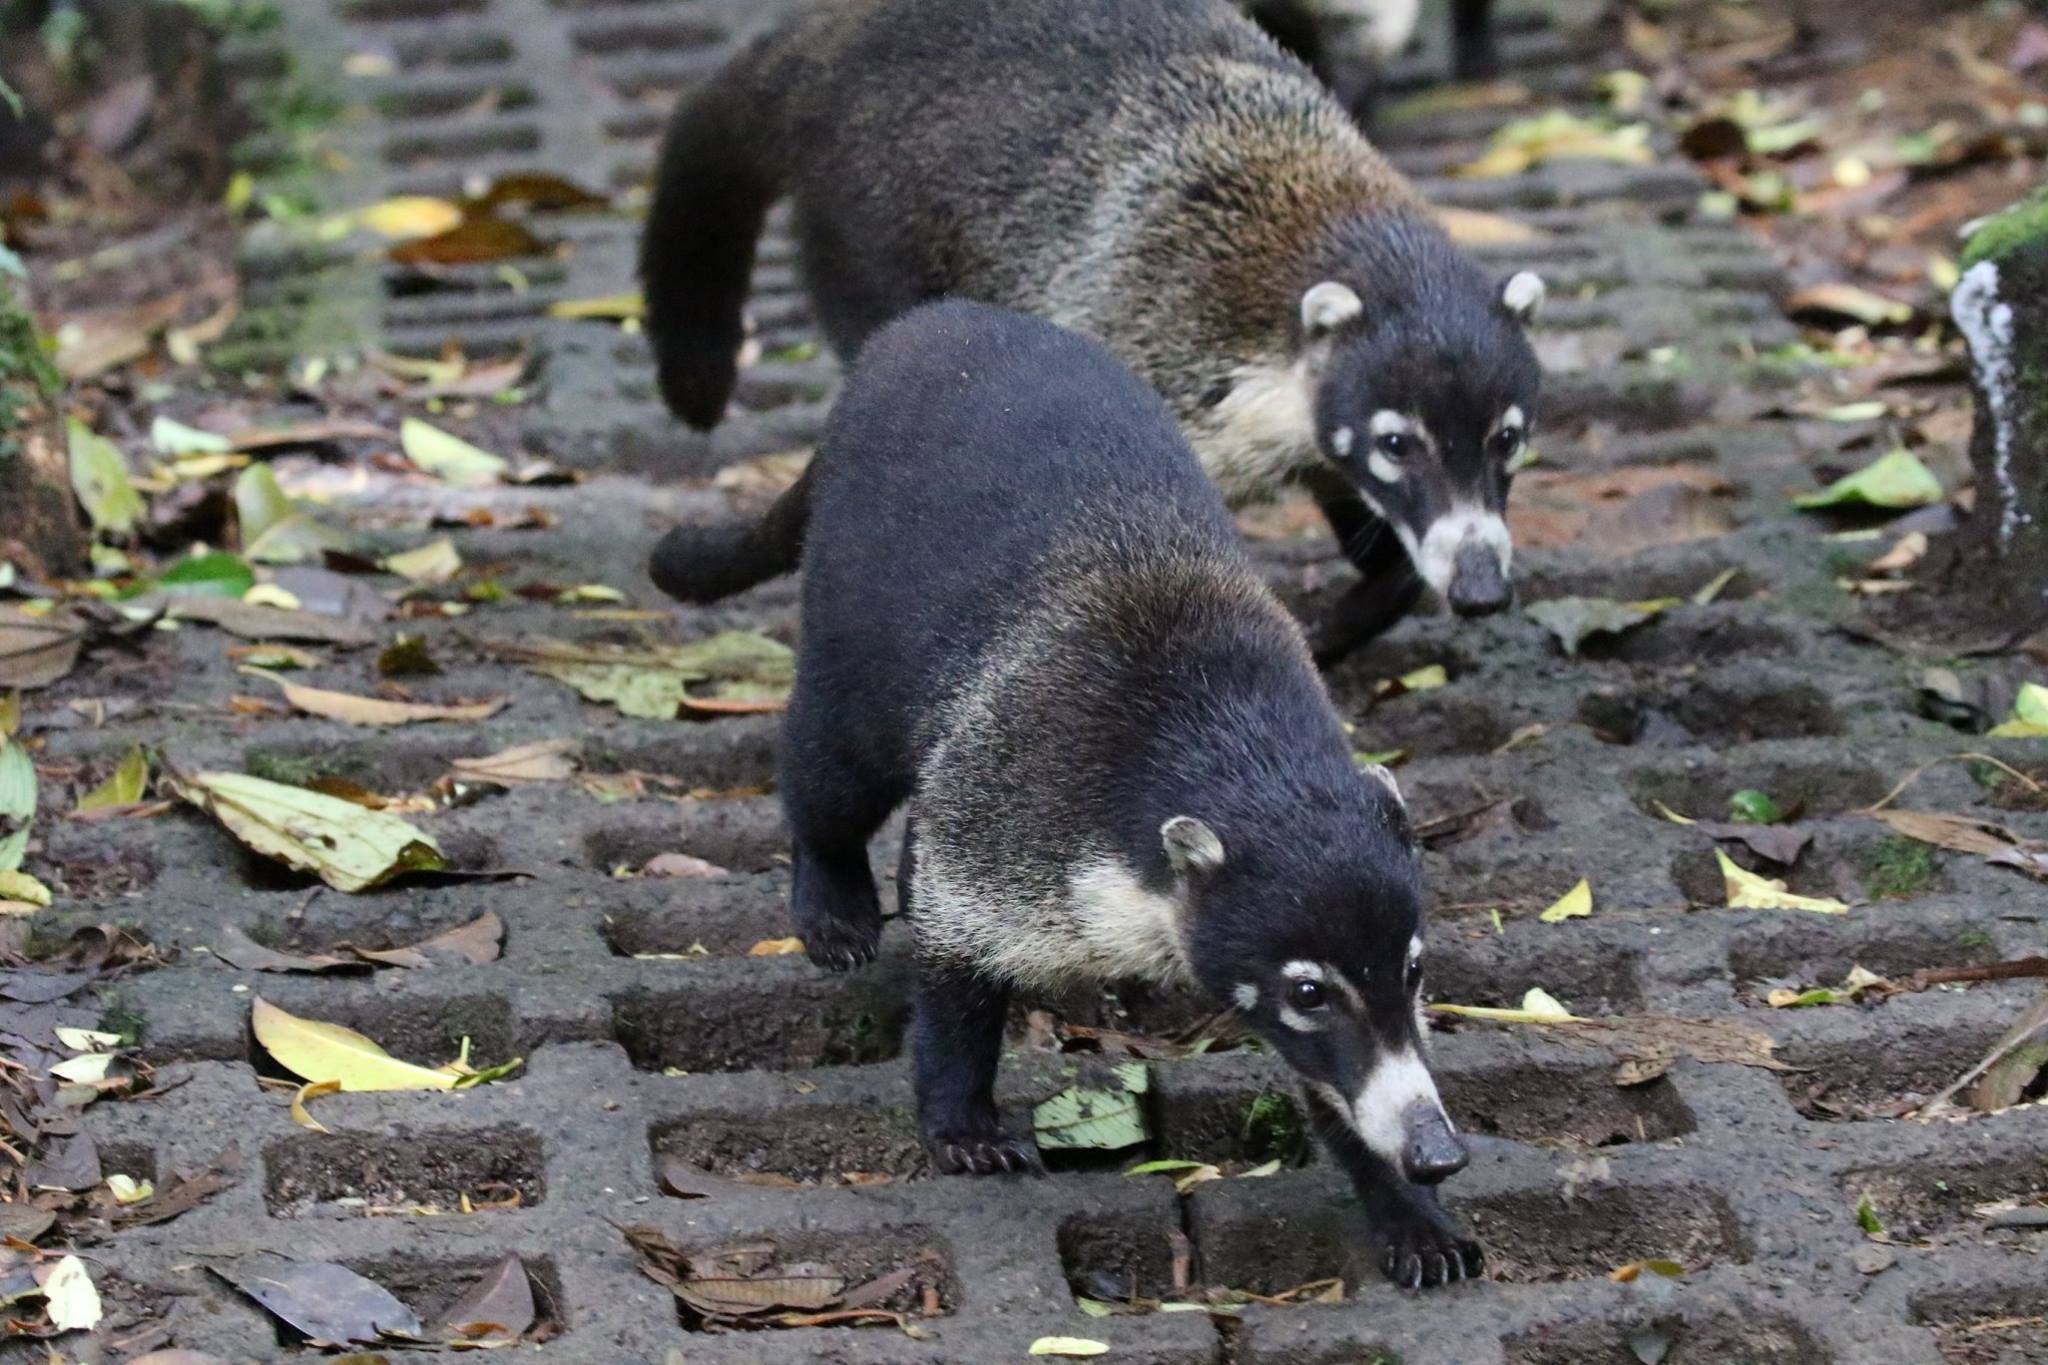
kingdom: Animalia
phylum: Chordata
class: Mammalia
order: Carnivora
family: Procyonidae
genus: Nasua
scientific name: Nasua narica
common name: White-nosed coati
